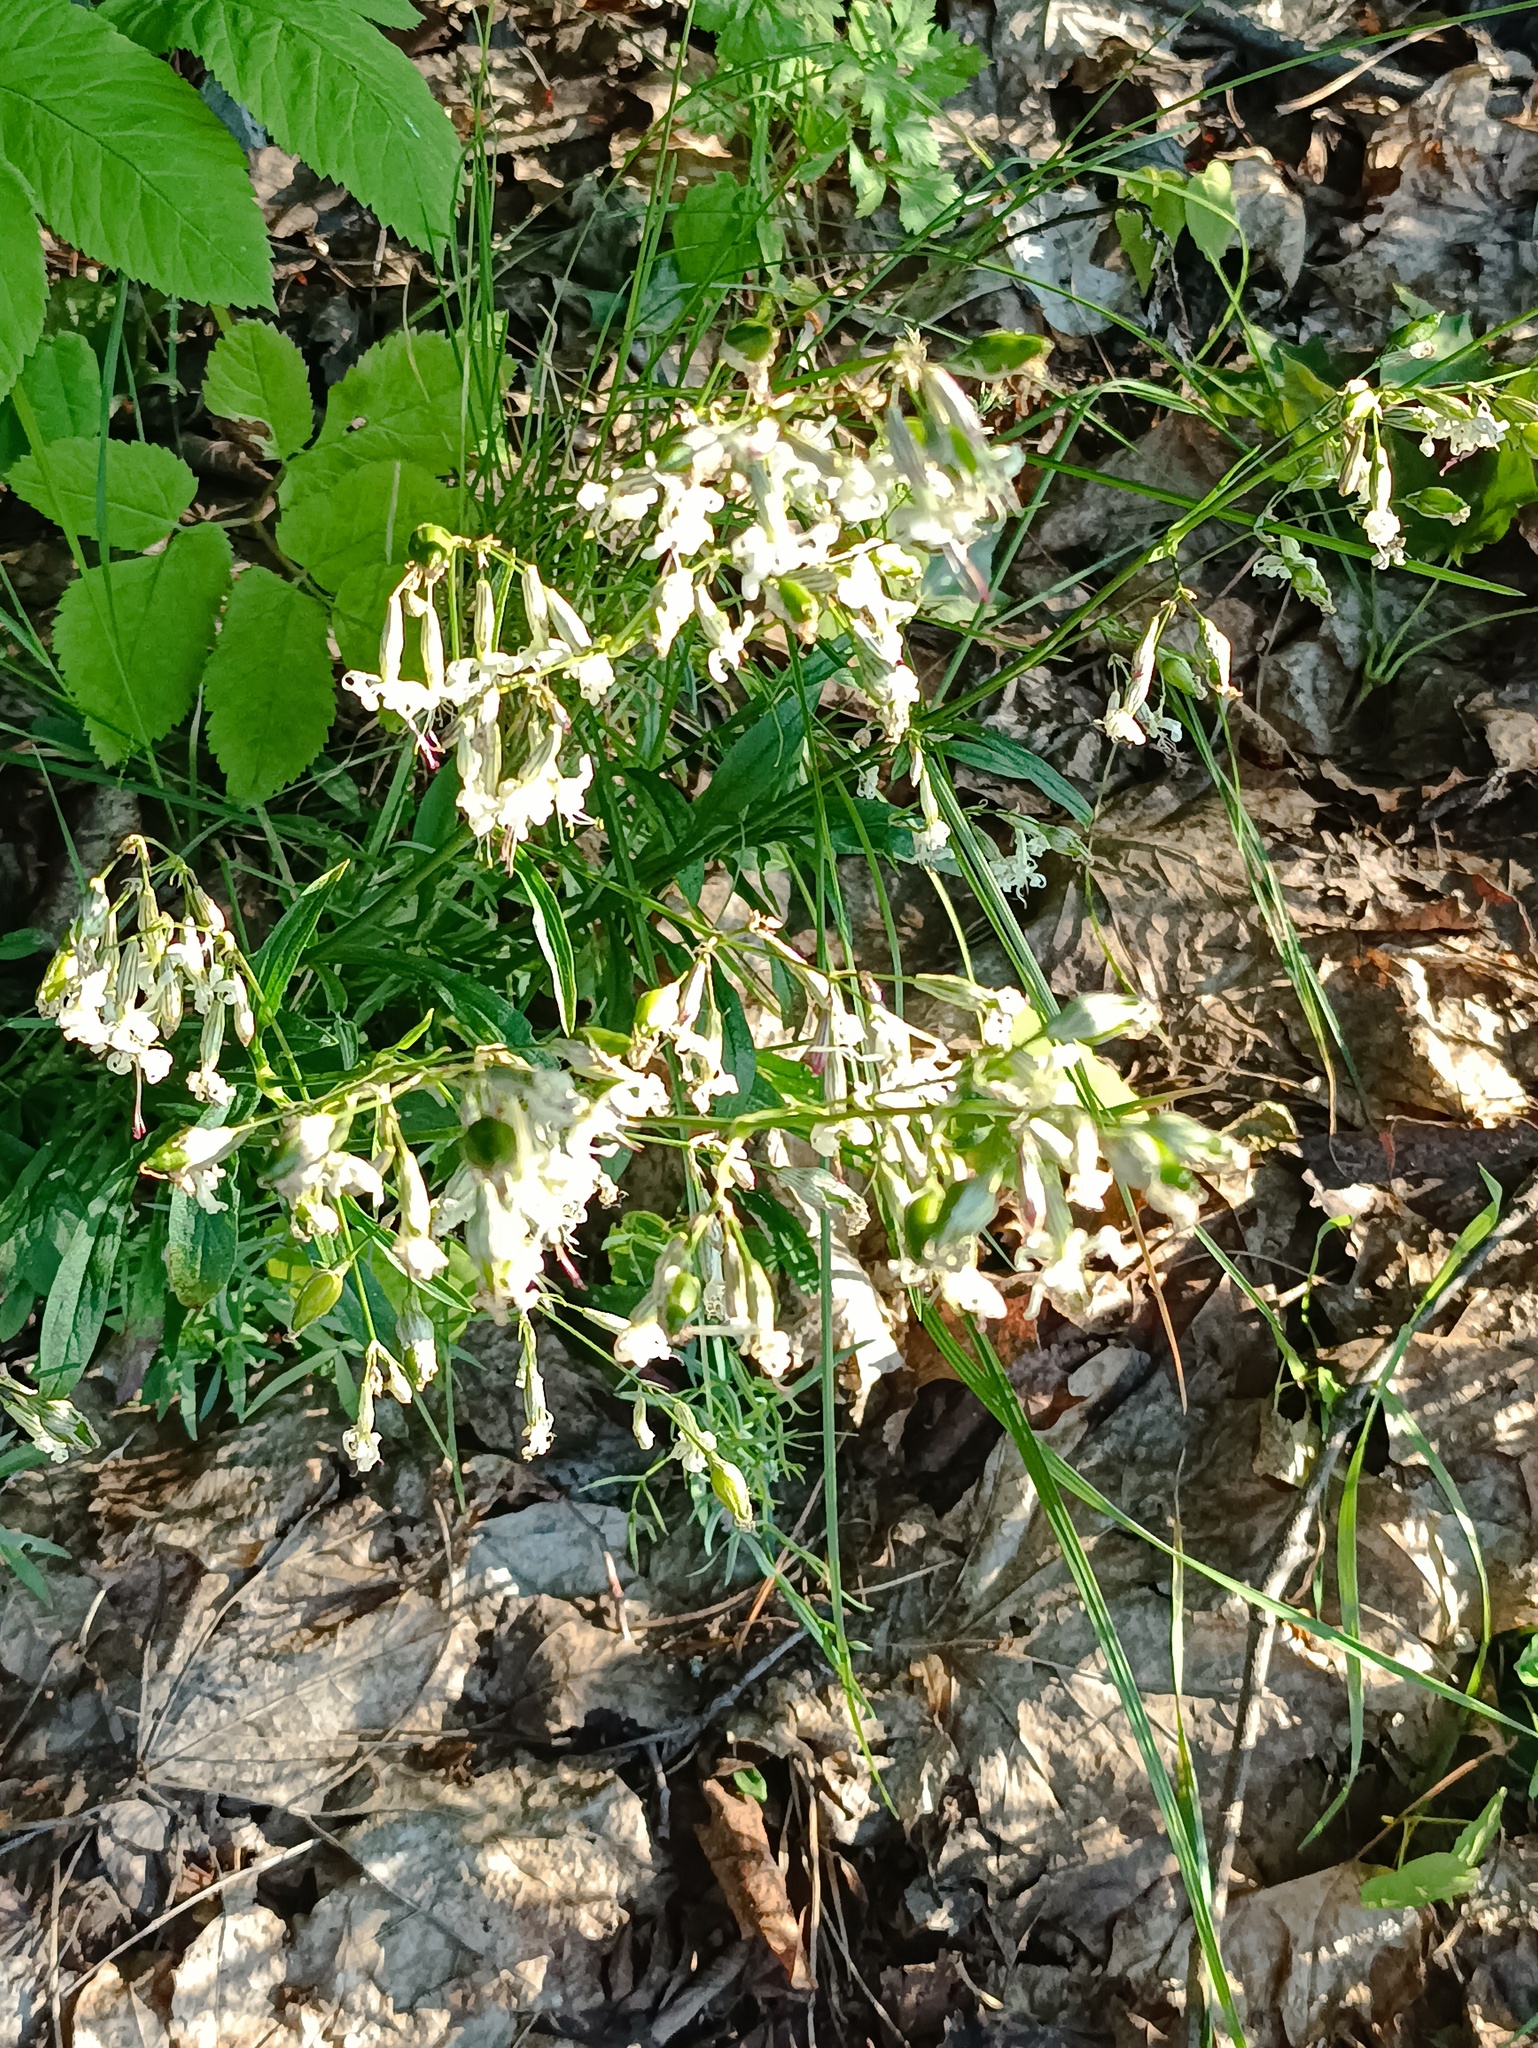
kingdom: Plantae
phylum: Tracheophyta
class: Magnoliopsida
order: Caryophyllales
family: Caryophyllaceae
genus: Silene
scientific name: Silene nutans
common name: Nottingham catchfly
